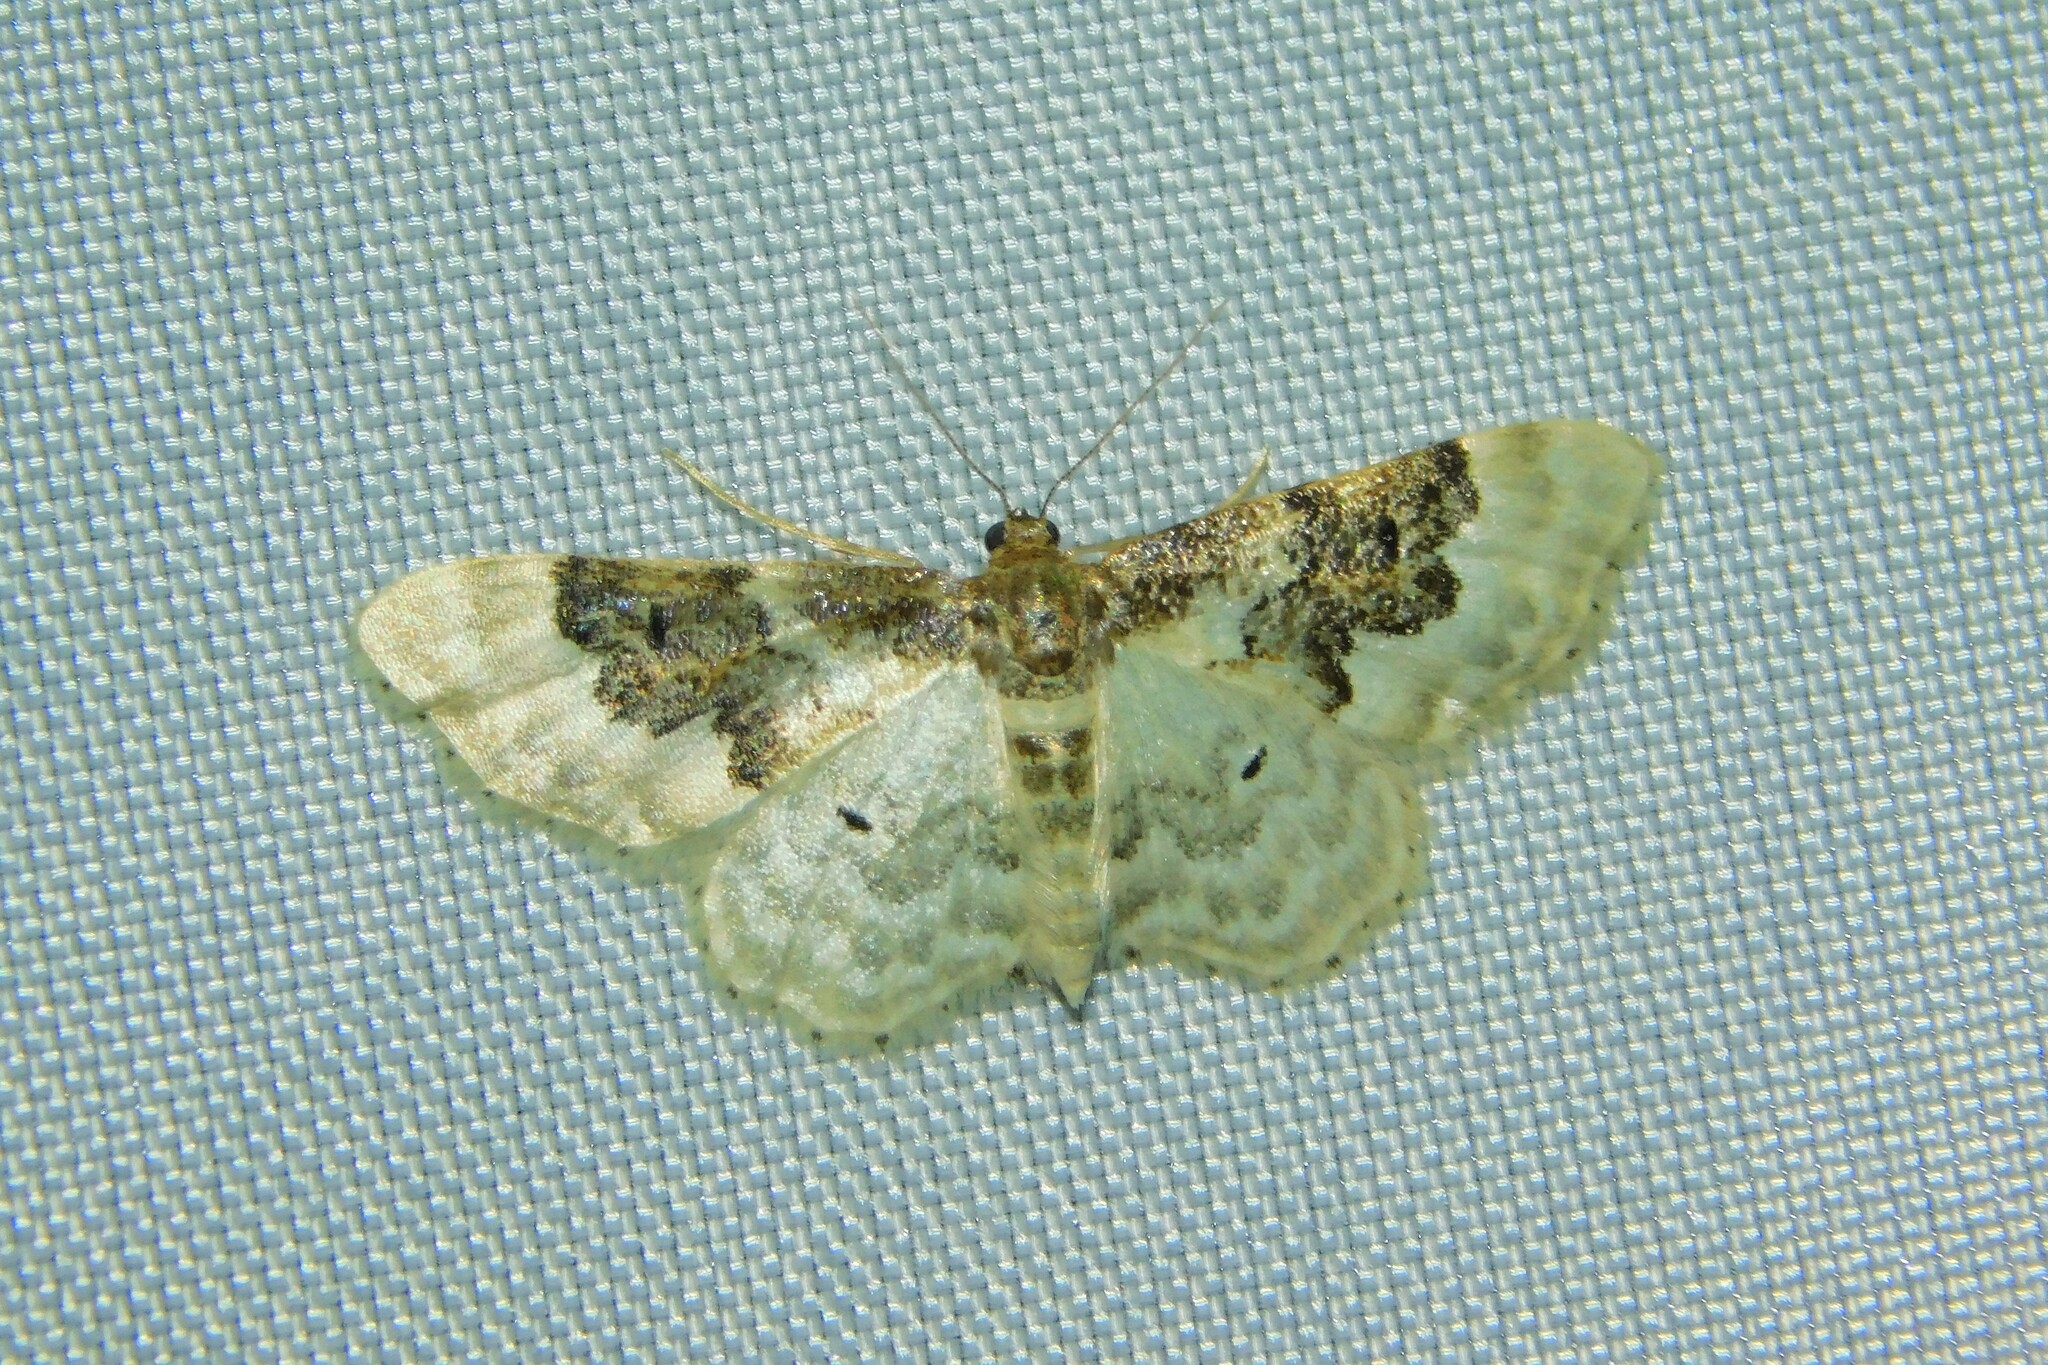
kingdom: Animalia
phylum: Arthropoda
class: Insecta
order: Lepidoptera
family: Geometridae
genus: Idaea
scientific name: Idaea rusticata
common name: Least carpet
